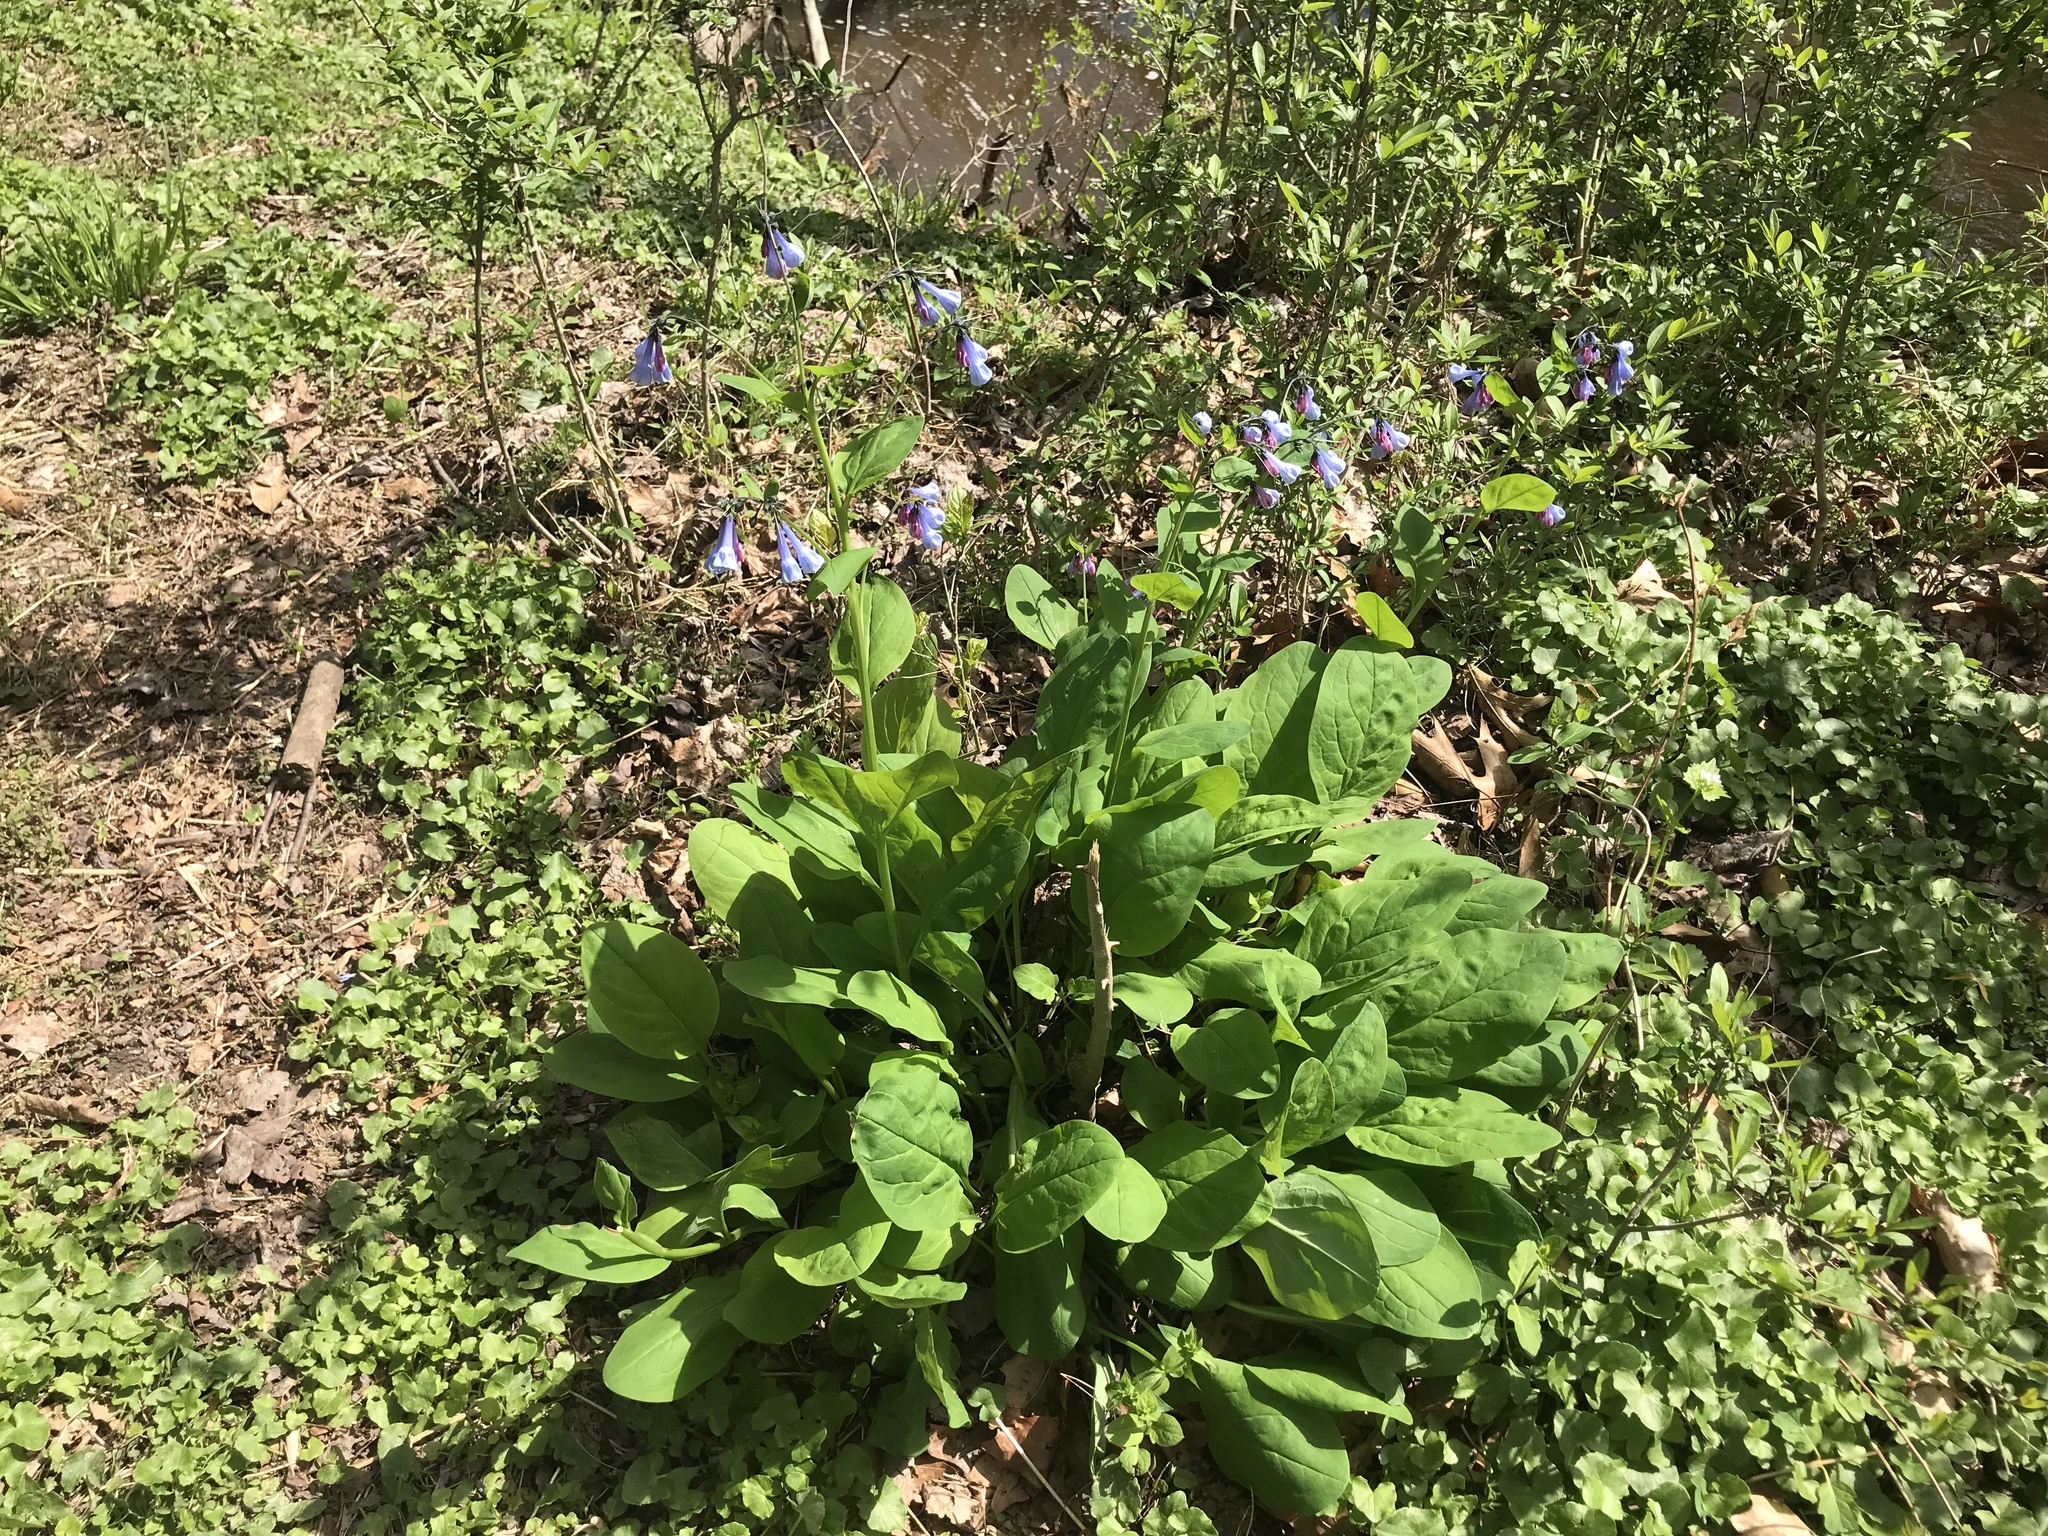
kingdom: Plantae
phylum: Tracheophyta
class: Magnoliopsida
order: Boraginales
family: Boraginaceae
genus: Mertensia
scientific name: Mertensia virginica
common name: Virginia bluebells
